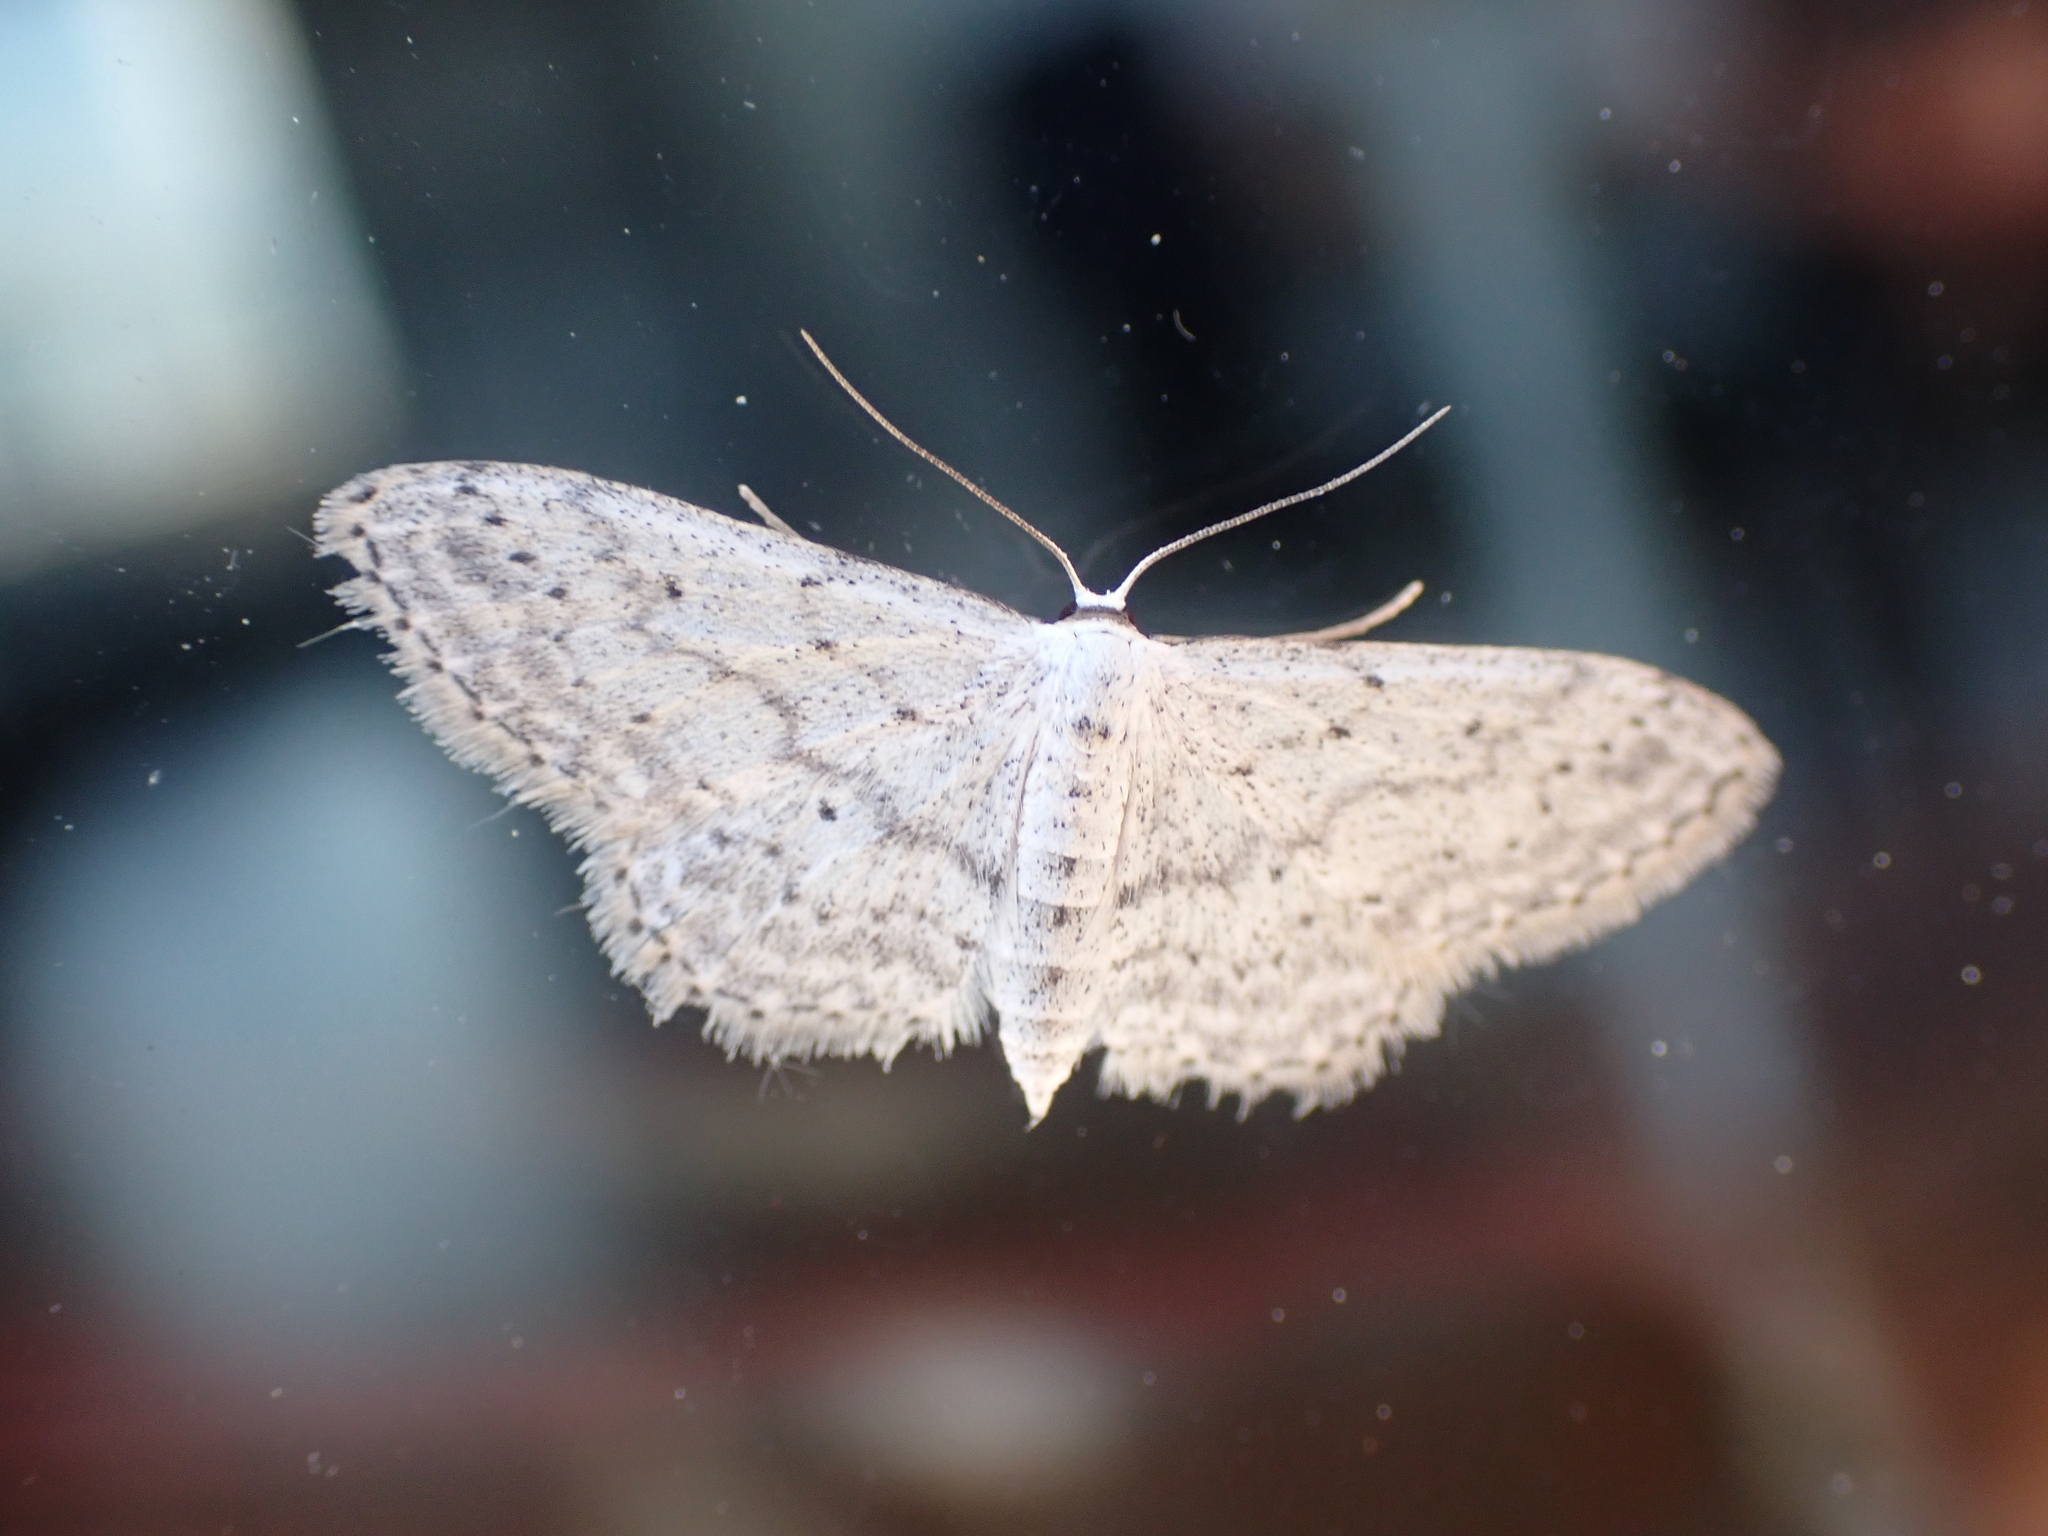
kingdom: Animalia
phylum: Arthropoda
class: Insecta
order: Lepidoptera
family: Geometridae
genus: Idaea
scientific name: Idaea seriata
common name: Small dusty wave
